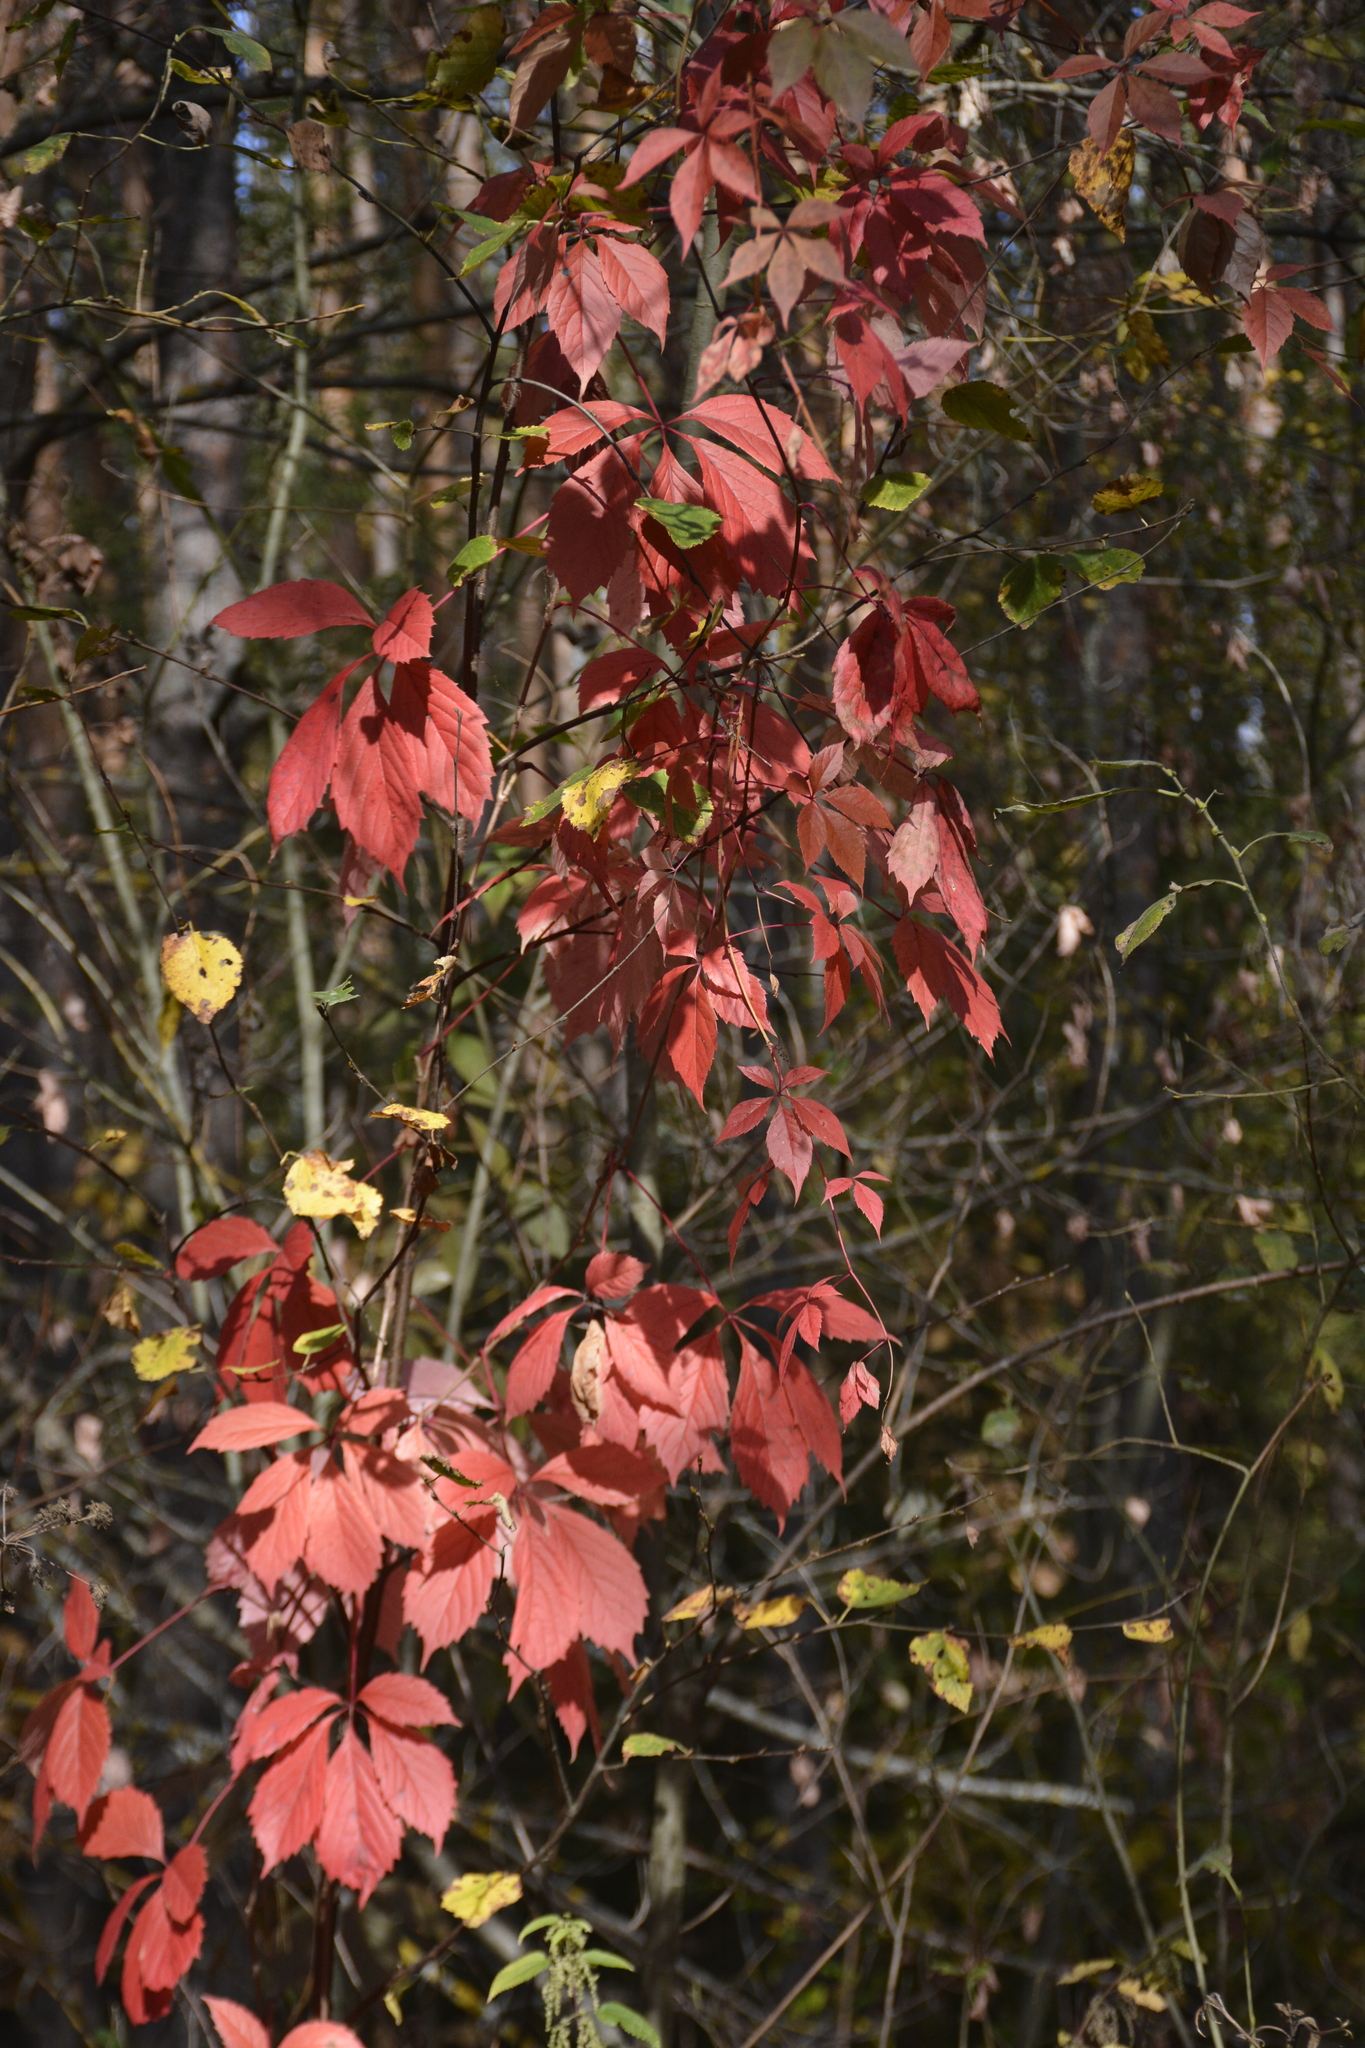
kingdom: Plantae
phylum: Tracheophyta
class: Magnoliopsida
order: Vitales
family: Vitaceae
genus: Parthenocissus
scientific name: Parthenocissus inserta
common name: False virginia-creeper
